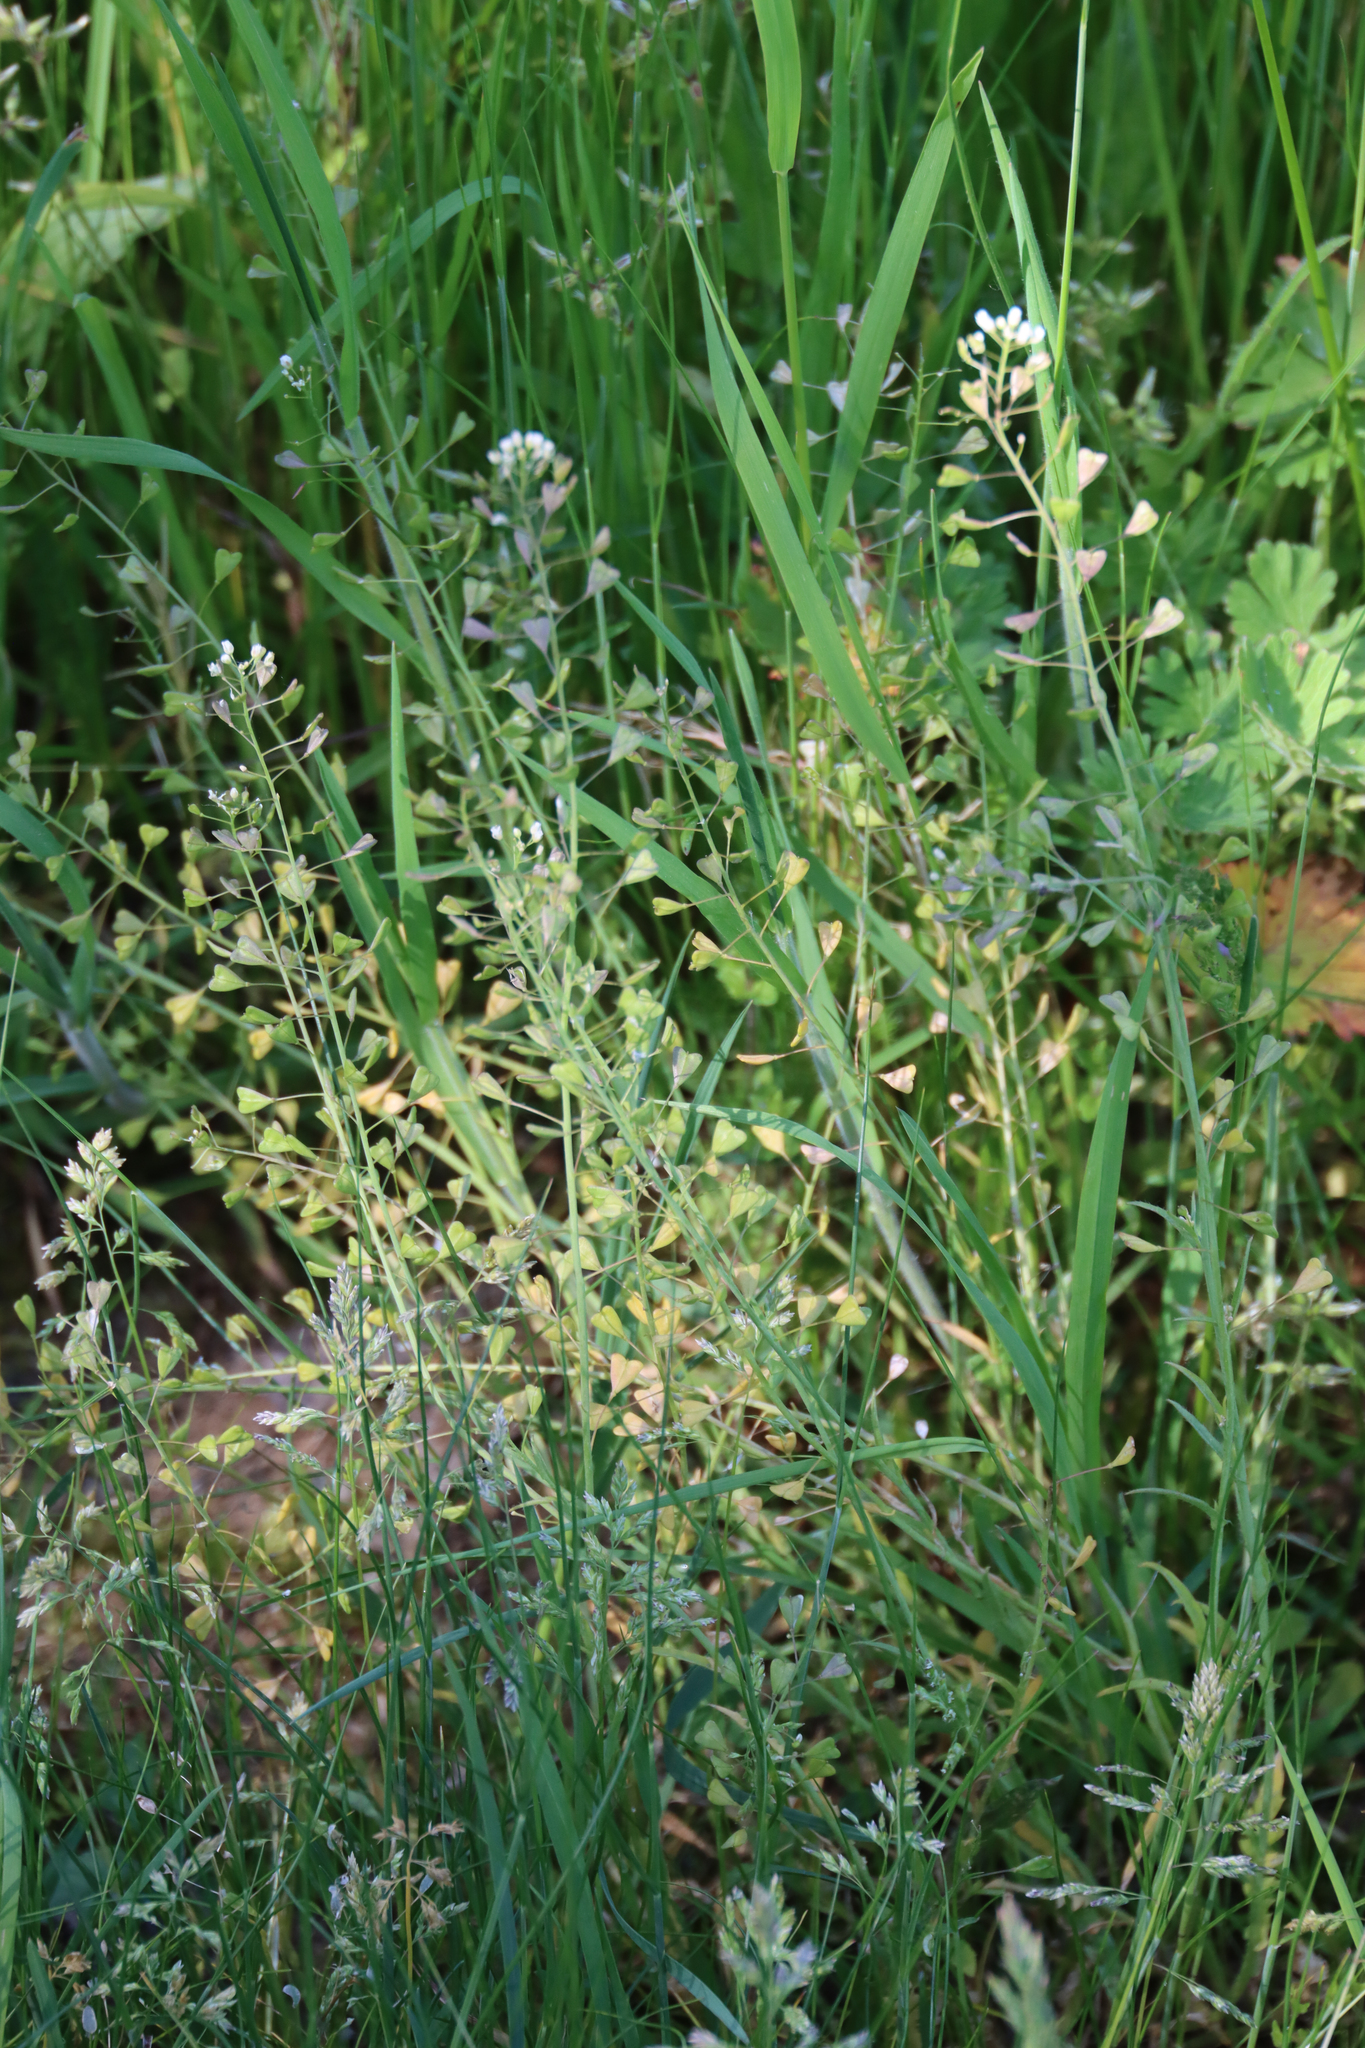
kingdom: Plantae
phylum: Tracheophyta
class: Magnoliopsida
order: Brassicales
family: Brassicaceae
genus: Capsella
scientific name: Capsella bursa-pastoris
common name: Shepherd's purse
